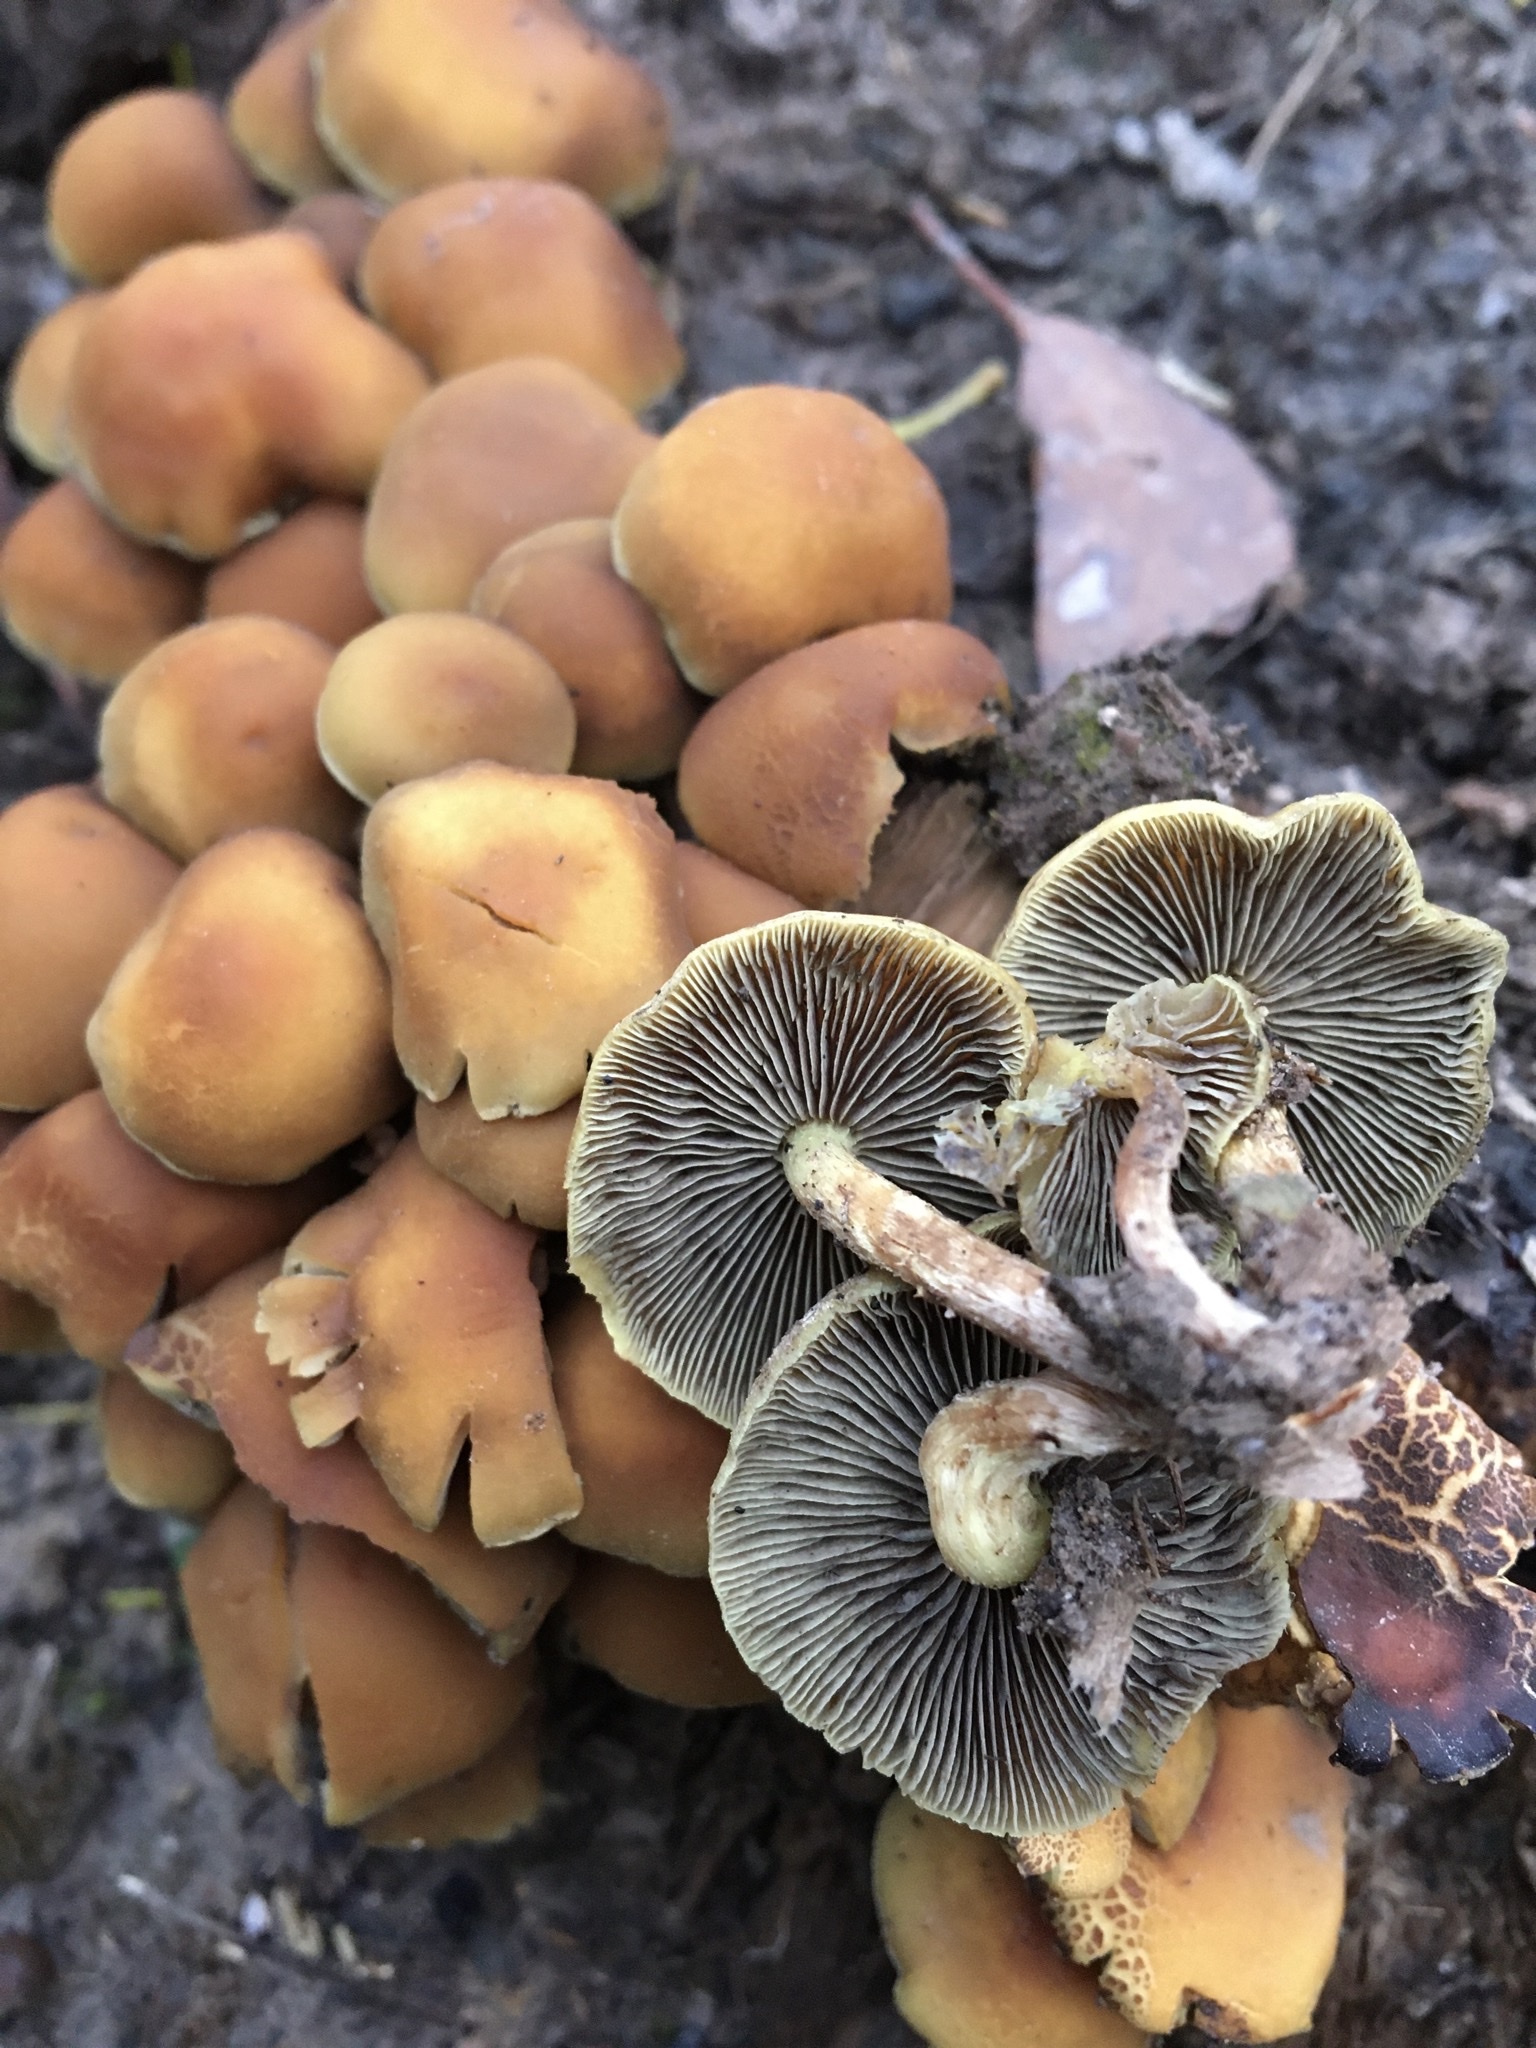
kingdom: Fungi
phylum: Basidiomycota
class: Agaricomycetes
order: Agaricales
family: Strophariaceae
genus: Hypholoma
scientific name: Hypholoma fasciculare
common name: Sulphur tuft
